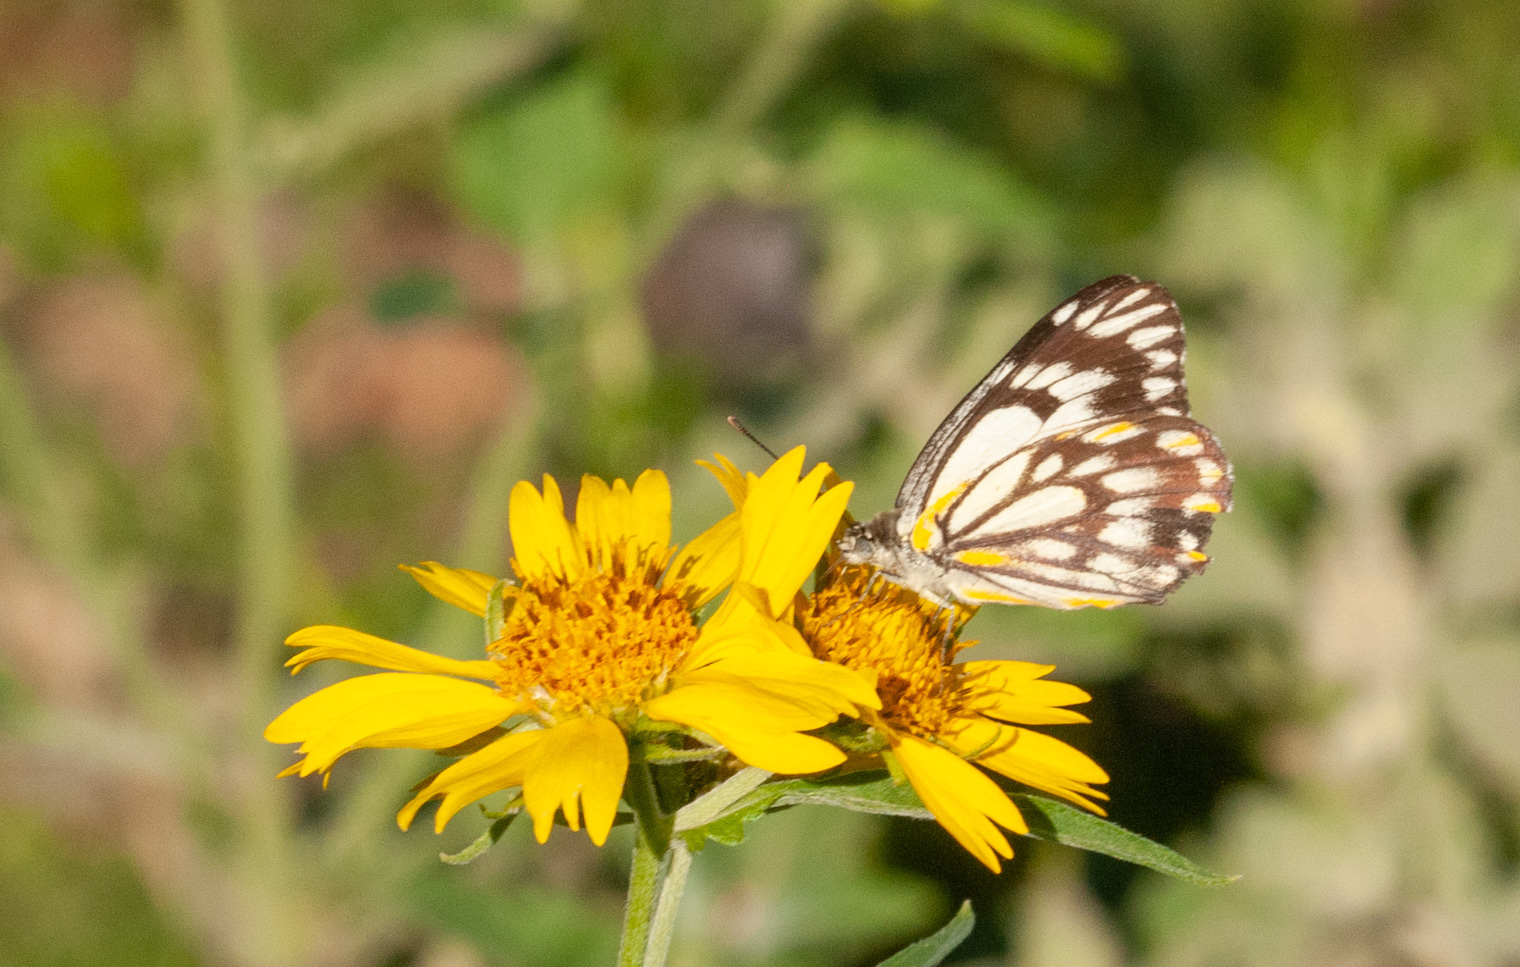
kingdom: Animalia
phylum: Arthropoda
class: Insecta
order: Lepidoptera
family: Pieridae
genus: Belenois
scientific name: Belenois java
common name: Caper white
